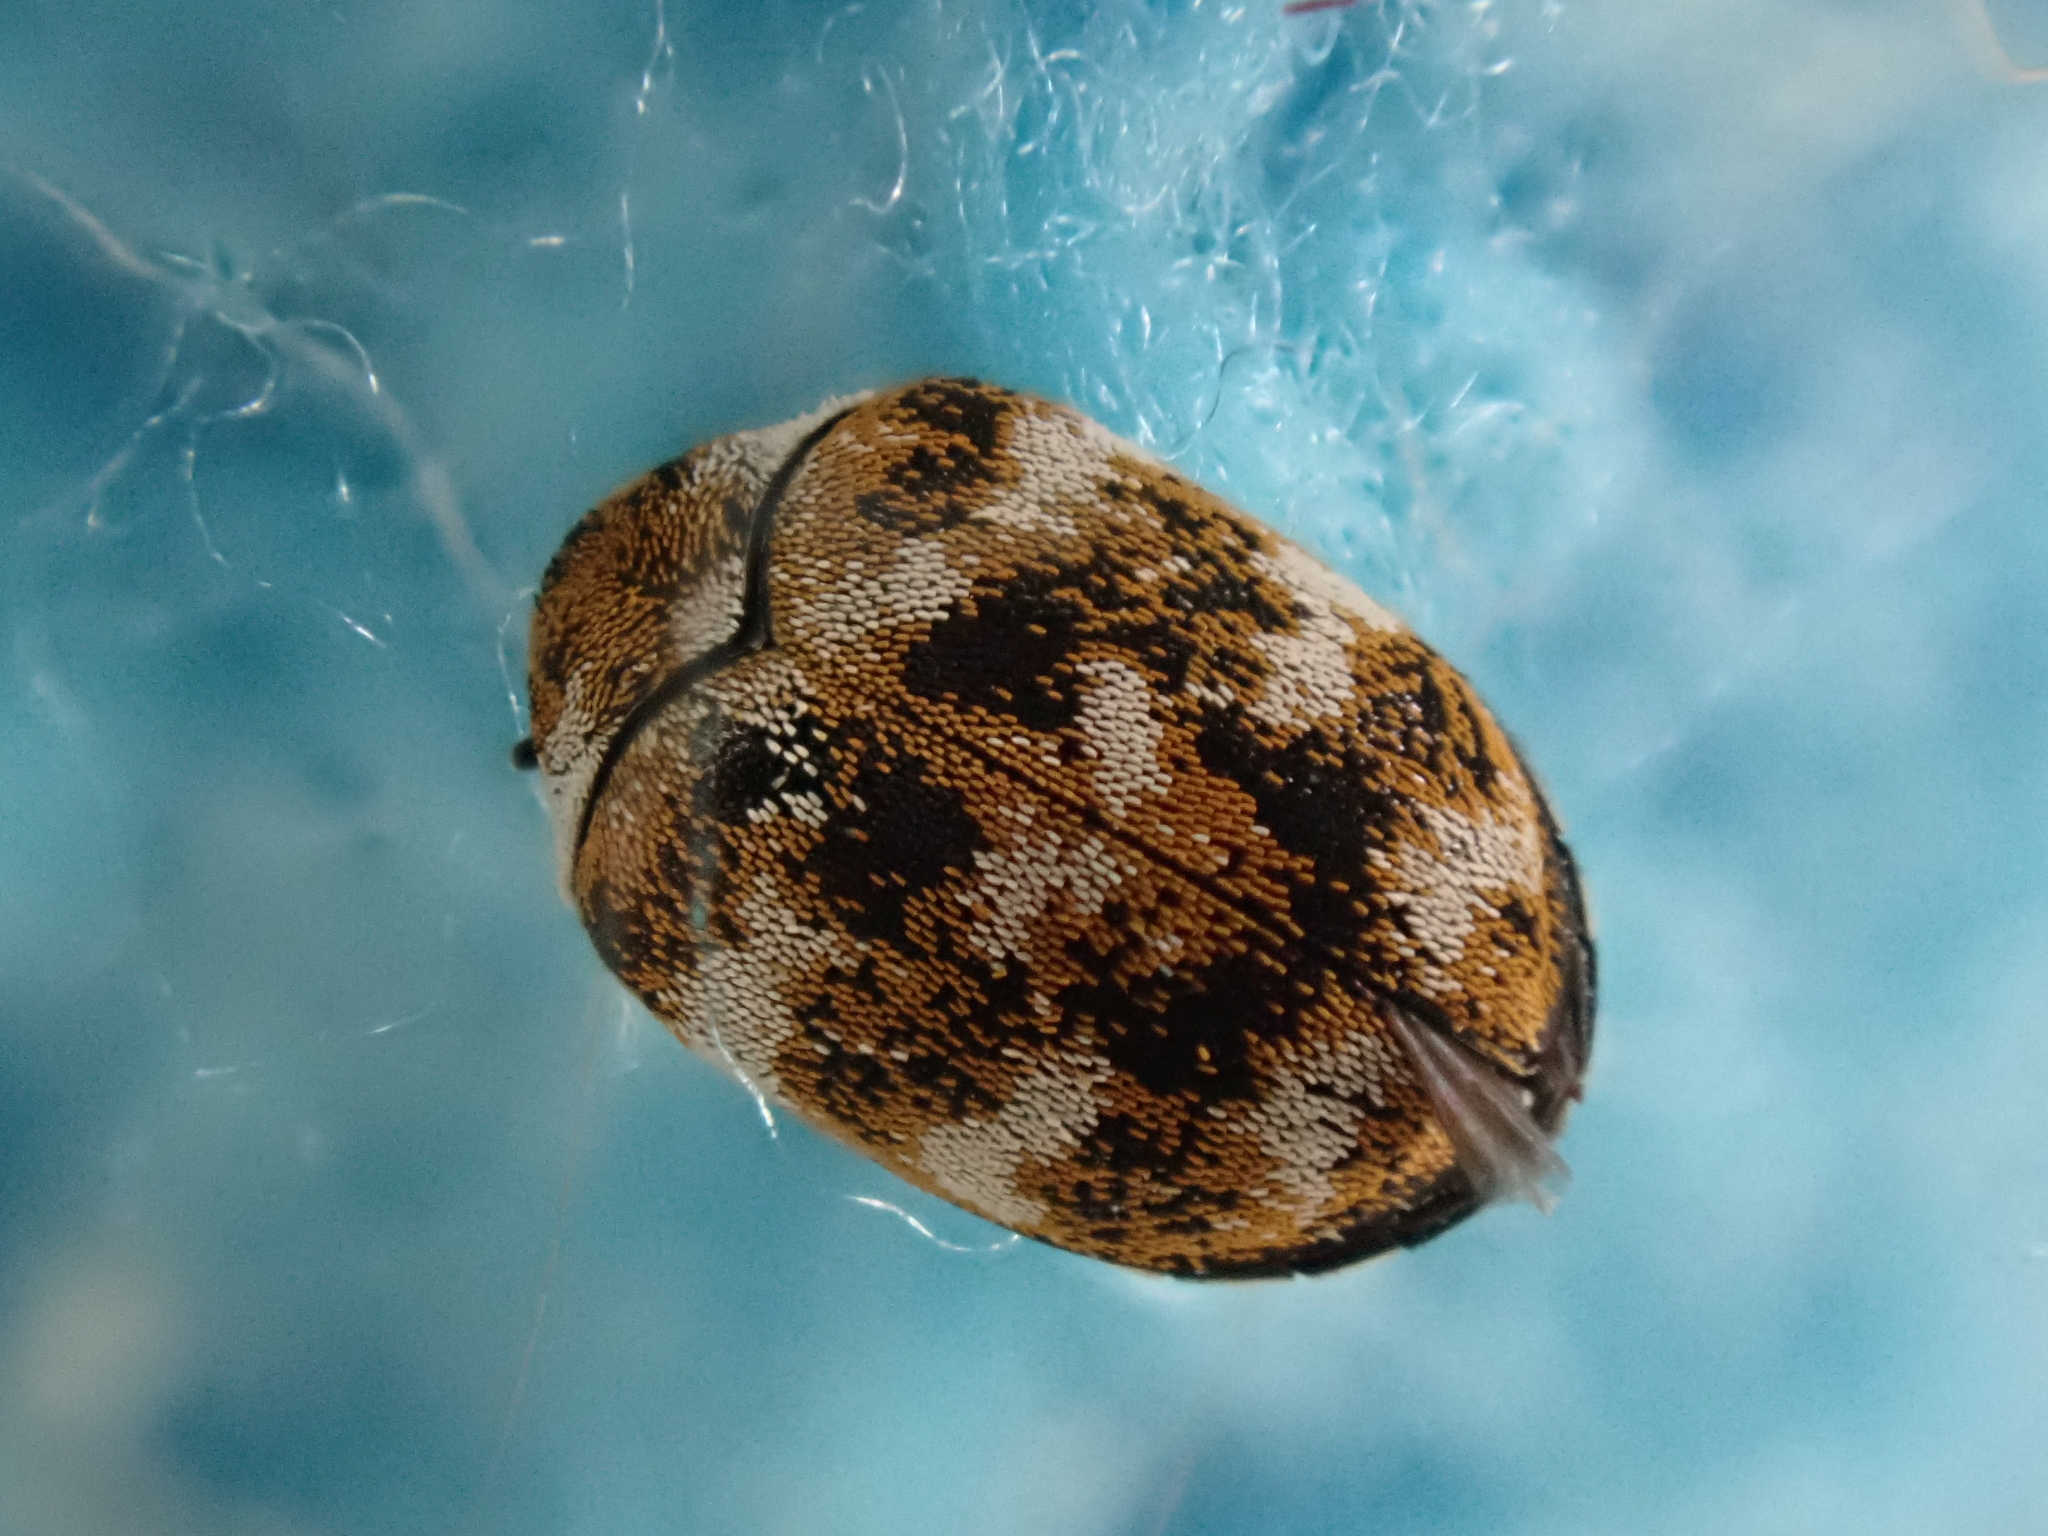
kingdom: Animalia
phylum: Arthropoda
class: Insecta
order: Coleoptera
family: Dermestidae
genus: Anthrenus
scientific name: Anthrenus verbasci
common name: Varied carpet beetle
